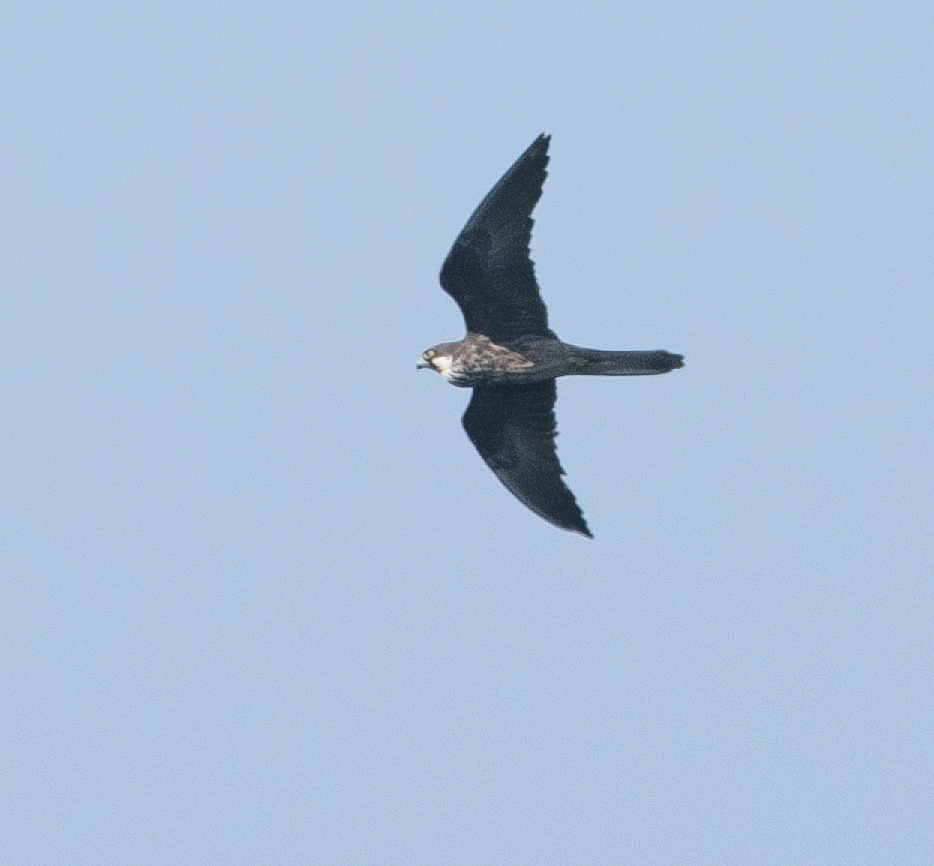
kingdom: Animalia
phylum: Chordata
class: Aves
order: Falconiformes
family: Falconidae
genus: Falco
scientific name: Falco eleonorae
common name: Eleonora's falcon
